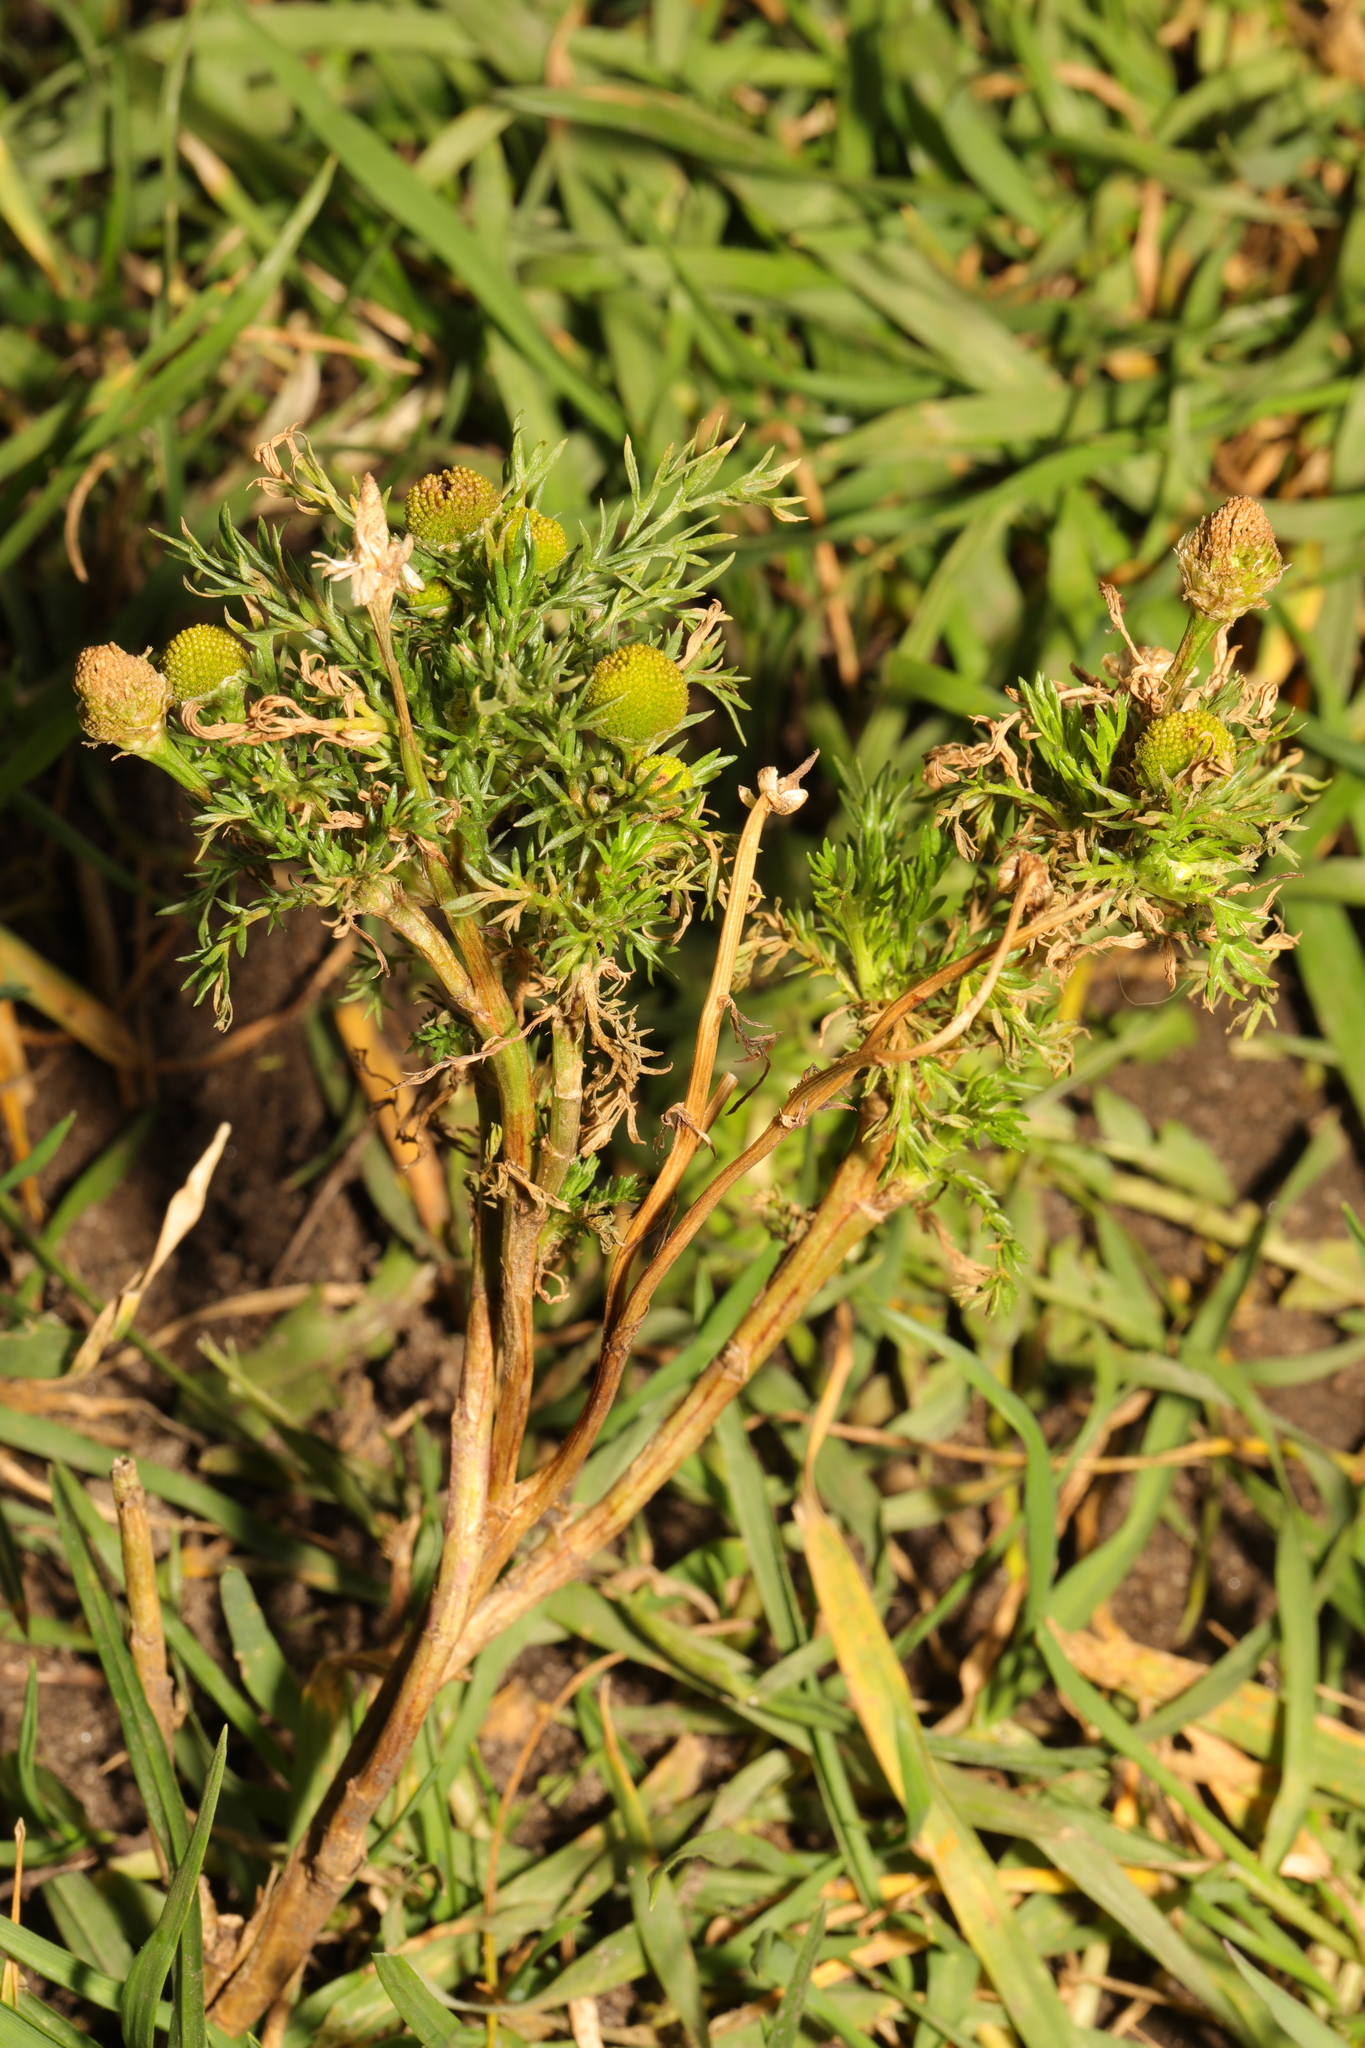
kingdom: Plantae
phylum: Tracheophyta
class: Magnoliopsida
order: Asterales
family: Asteraceae
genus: Matricaria
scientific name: Matricaria discoidea
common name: Disc mayweed
